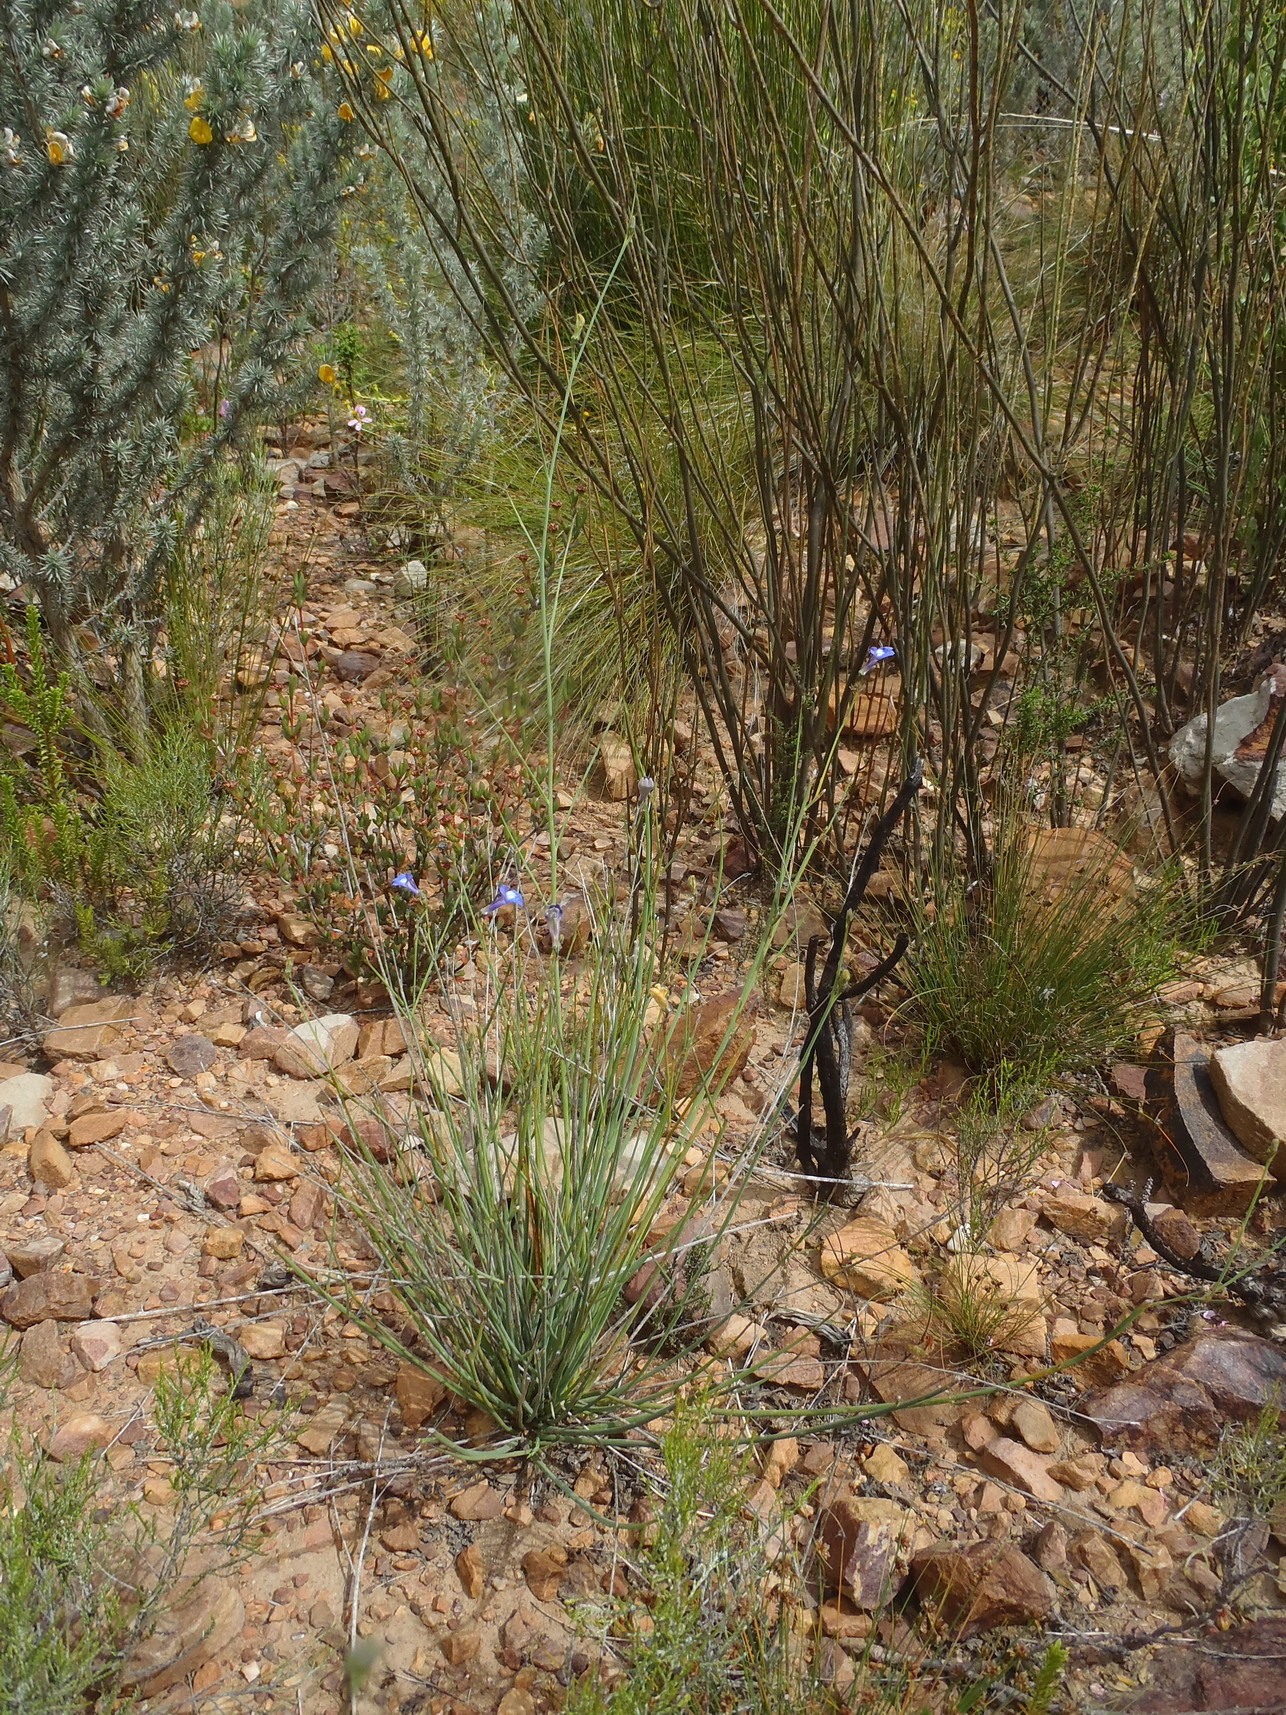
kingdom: Plantae
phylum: Tracheophyta
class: Magnoliopsida
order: Asterales
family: Campanulaceae
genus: Lobelia
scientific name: Lobelia linearis
